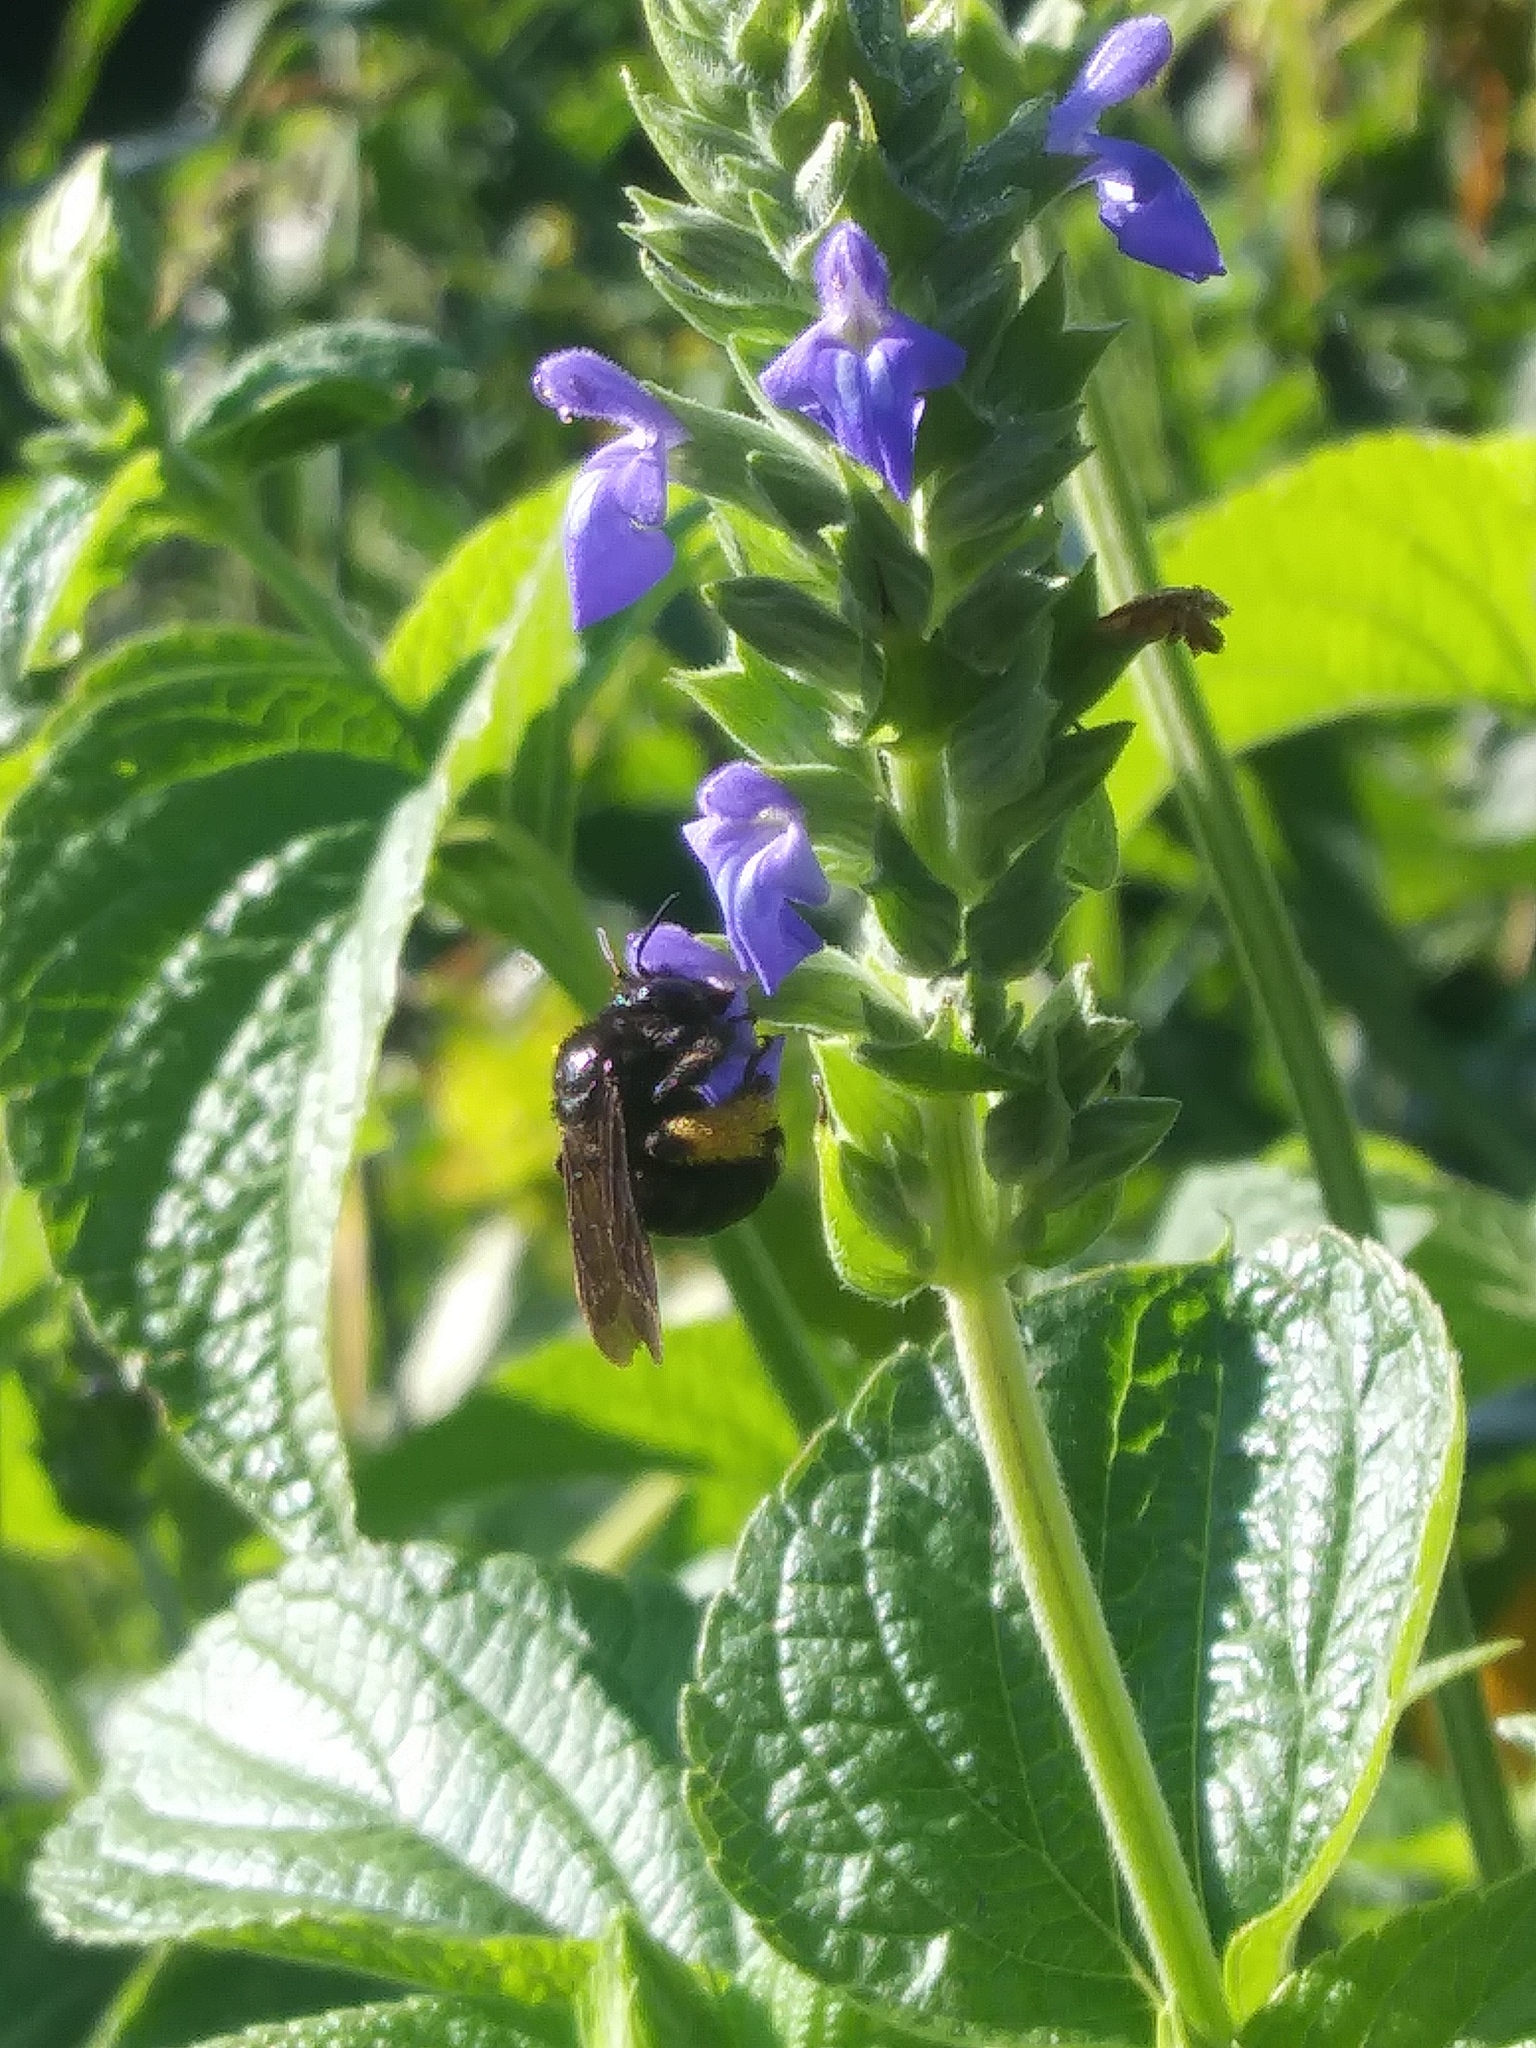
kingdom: Animalia
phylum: Arthropoda
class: Insecta
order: Hymenoptera
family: Apidae
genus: Melissodes
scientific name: Melissodes bimaculatus
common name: Two-spotted long-horned bee
